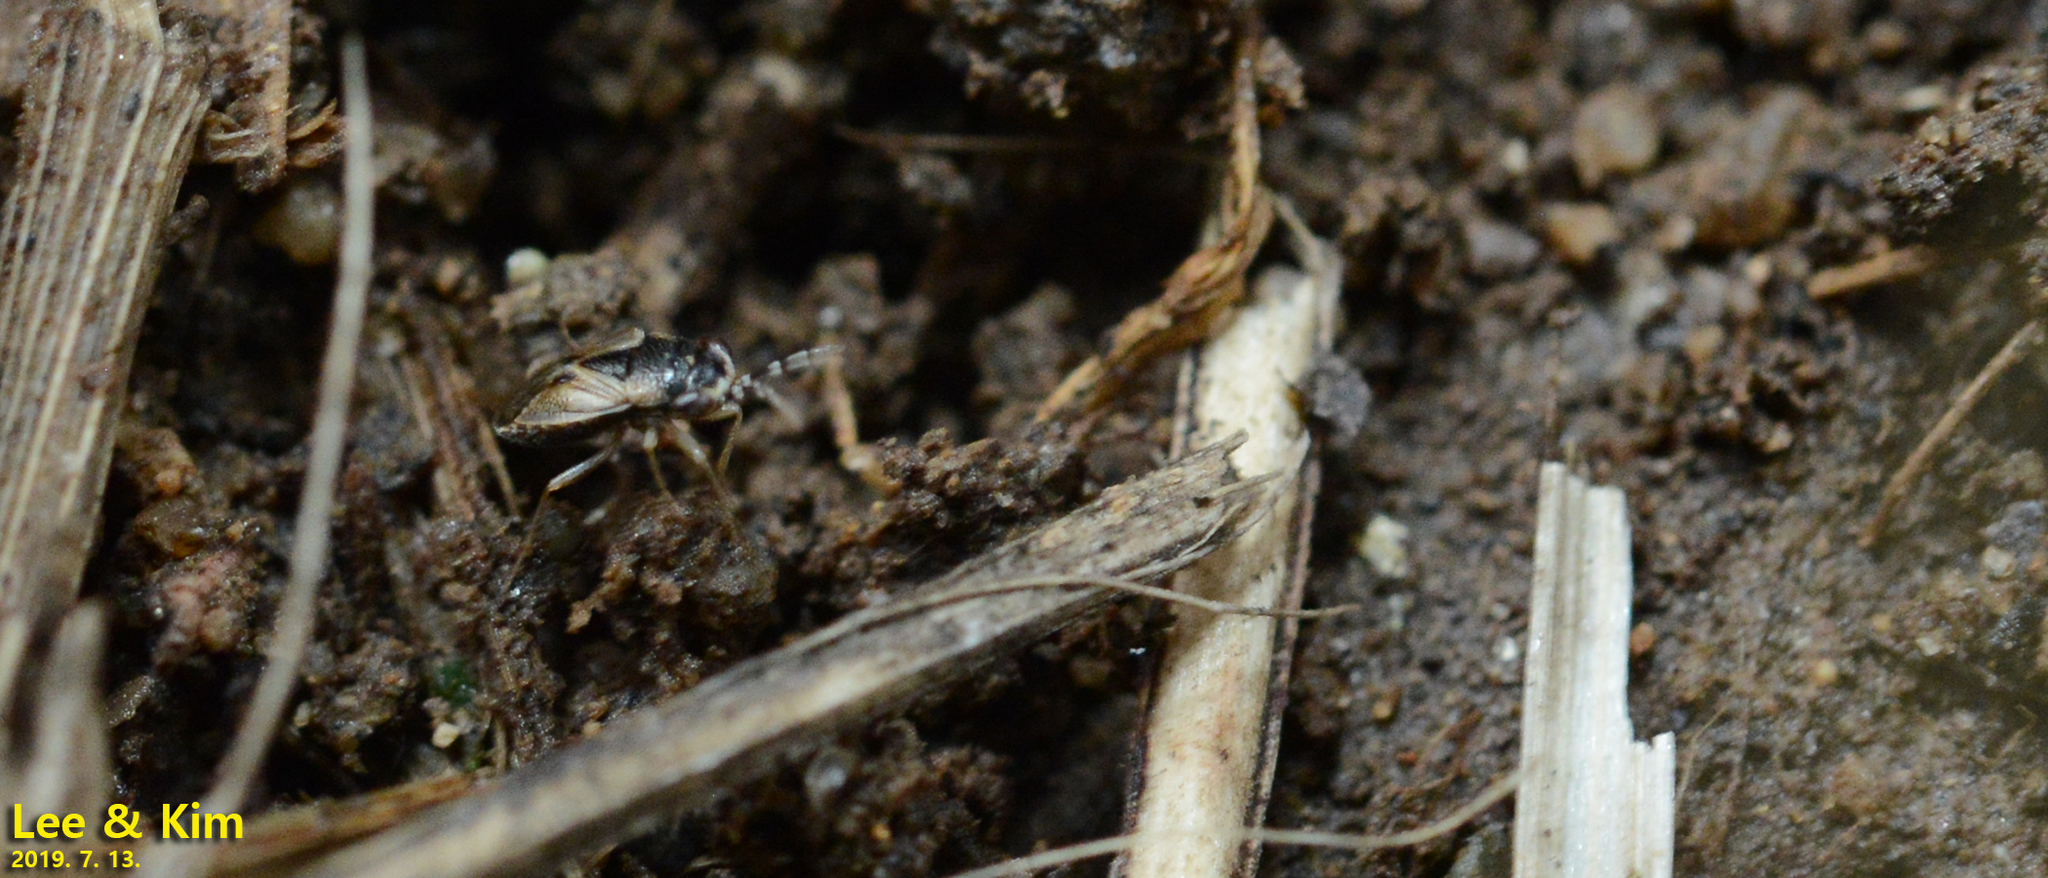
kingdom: Animalia
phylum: Arthropoda
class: Insecta
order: Hemiptera
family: Geocoridae
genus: Geocoris
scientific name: Geocoris pallidipennis
